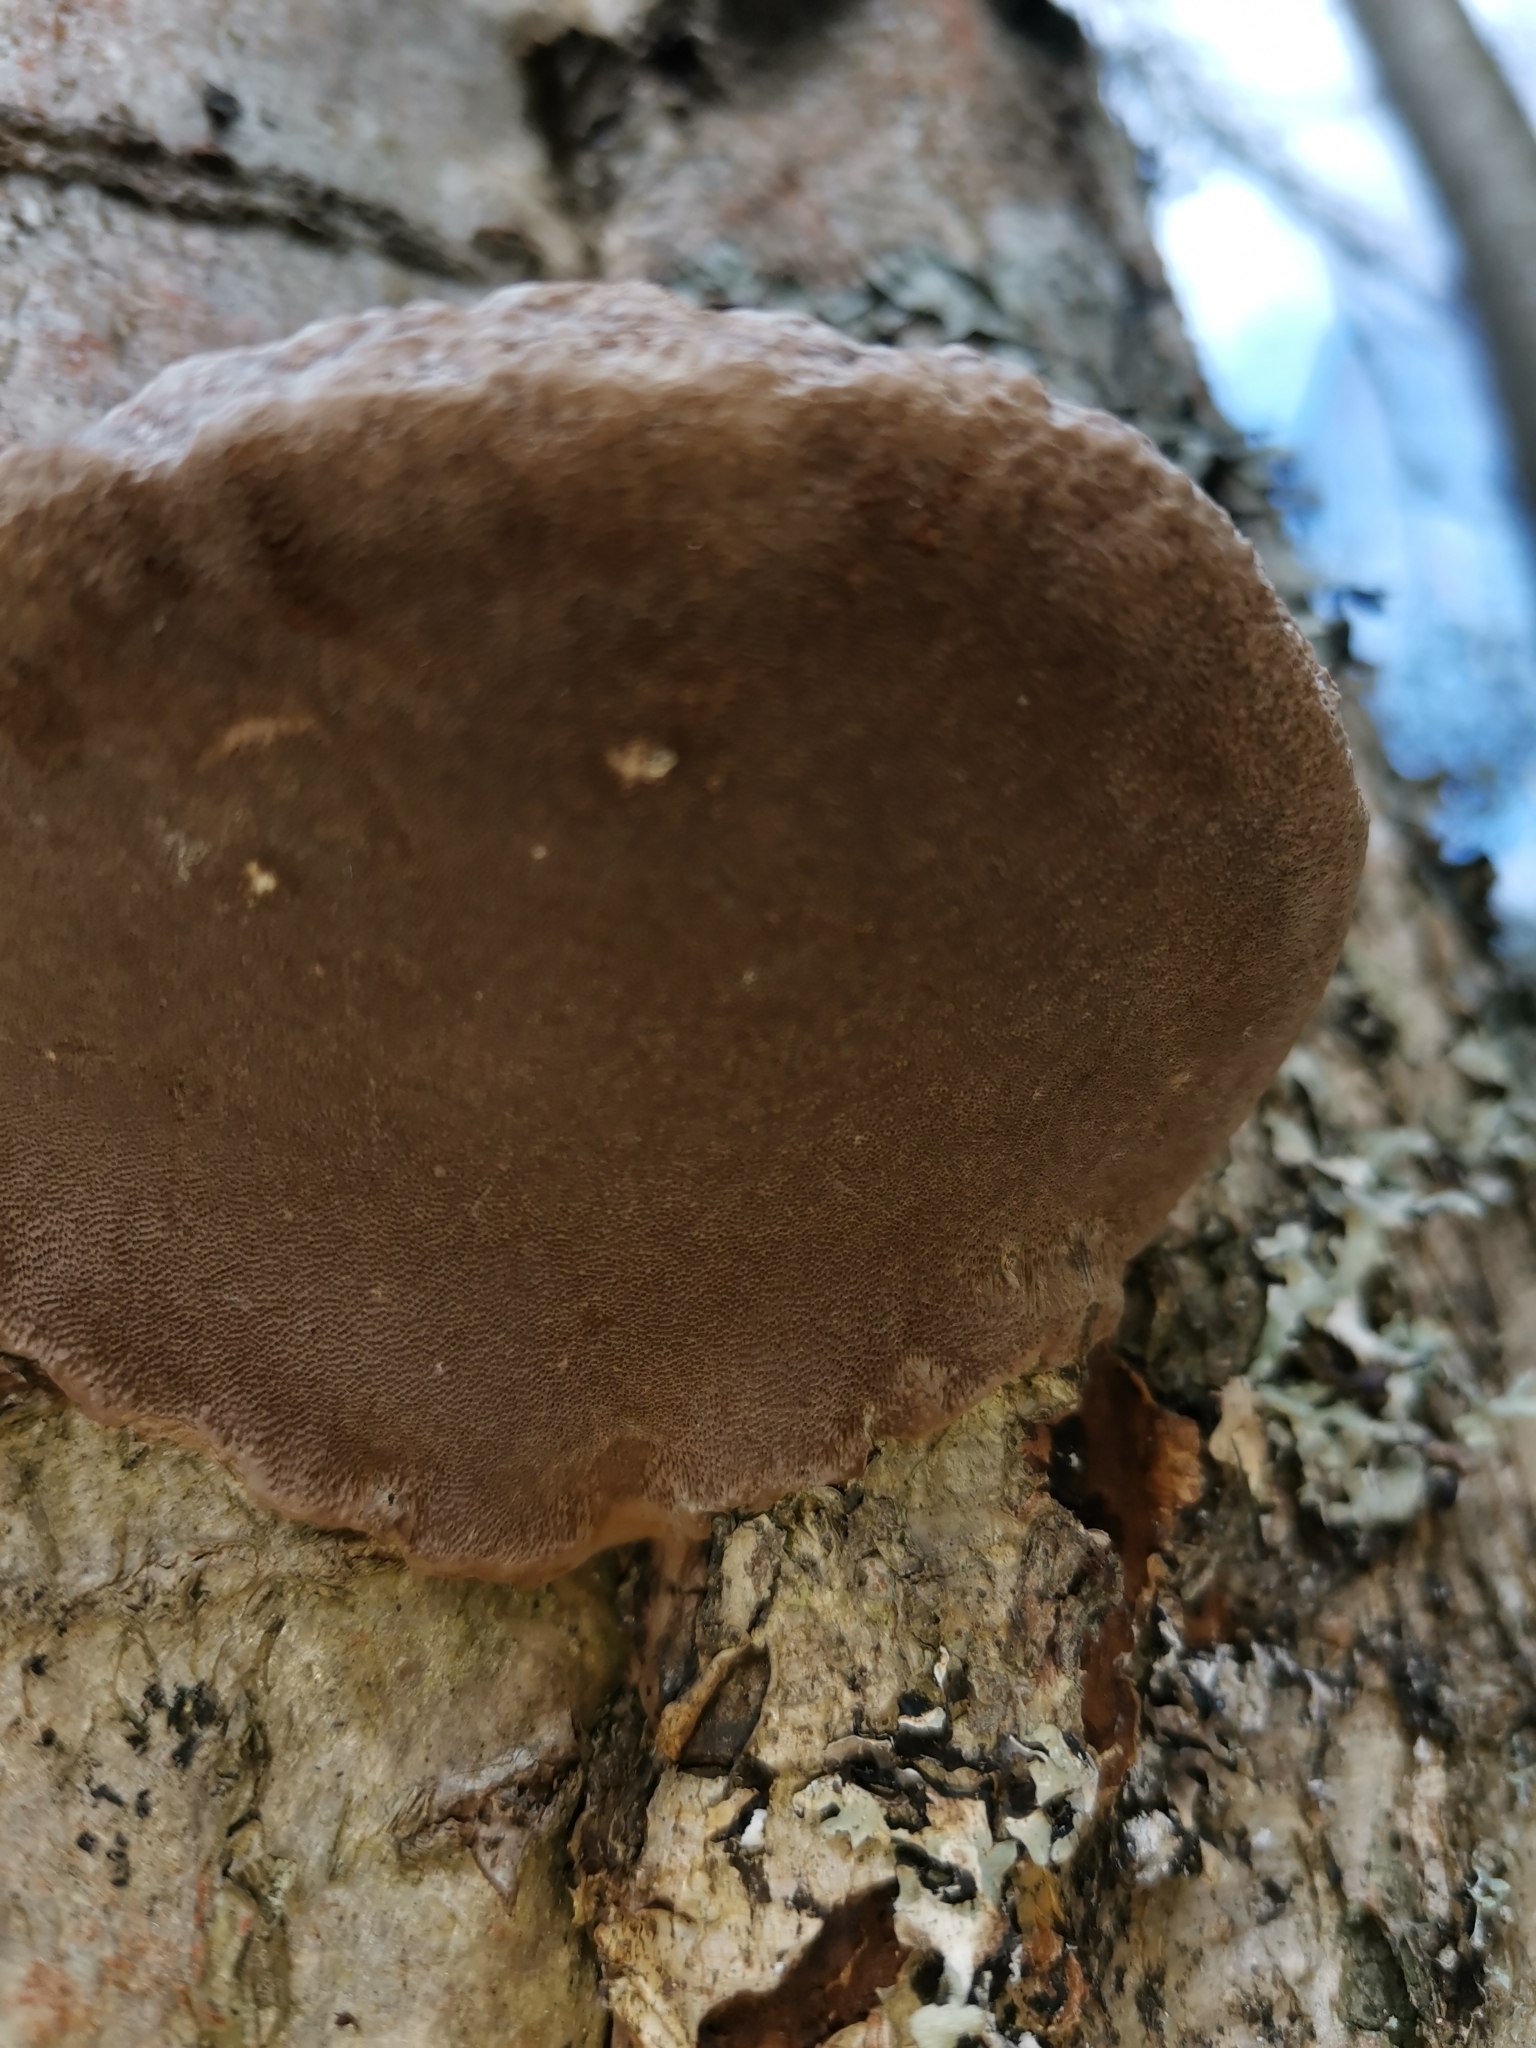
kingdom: Fungi
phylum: Basidiomycota
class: Agaricomycetes
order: Hymenochaetales
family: Hymenochaetaceae
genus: Phellinus
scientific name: Phellinus igniarius
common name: Willow bracket
